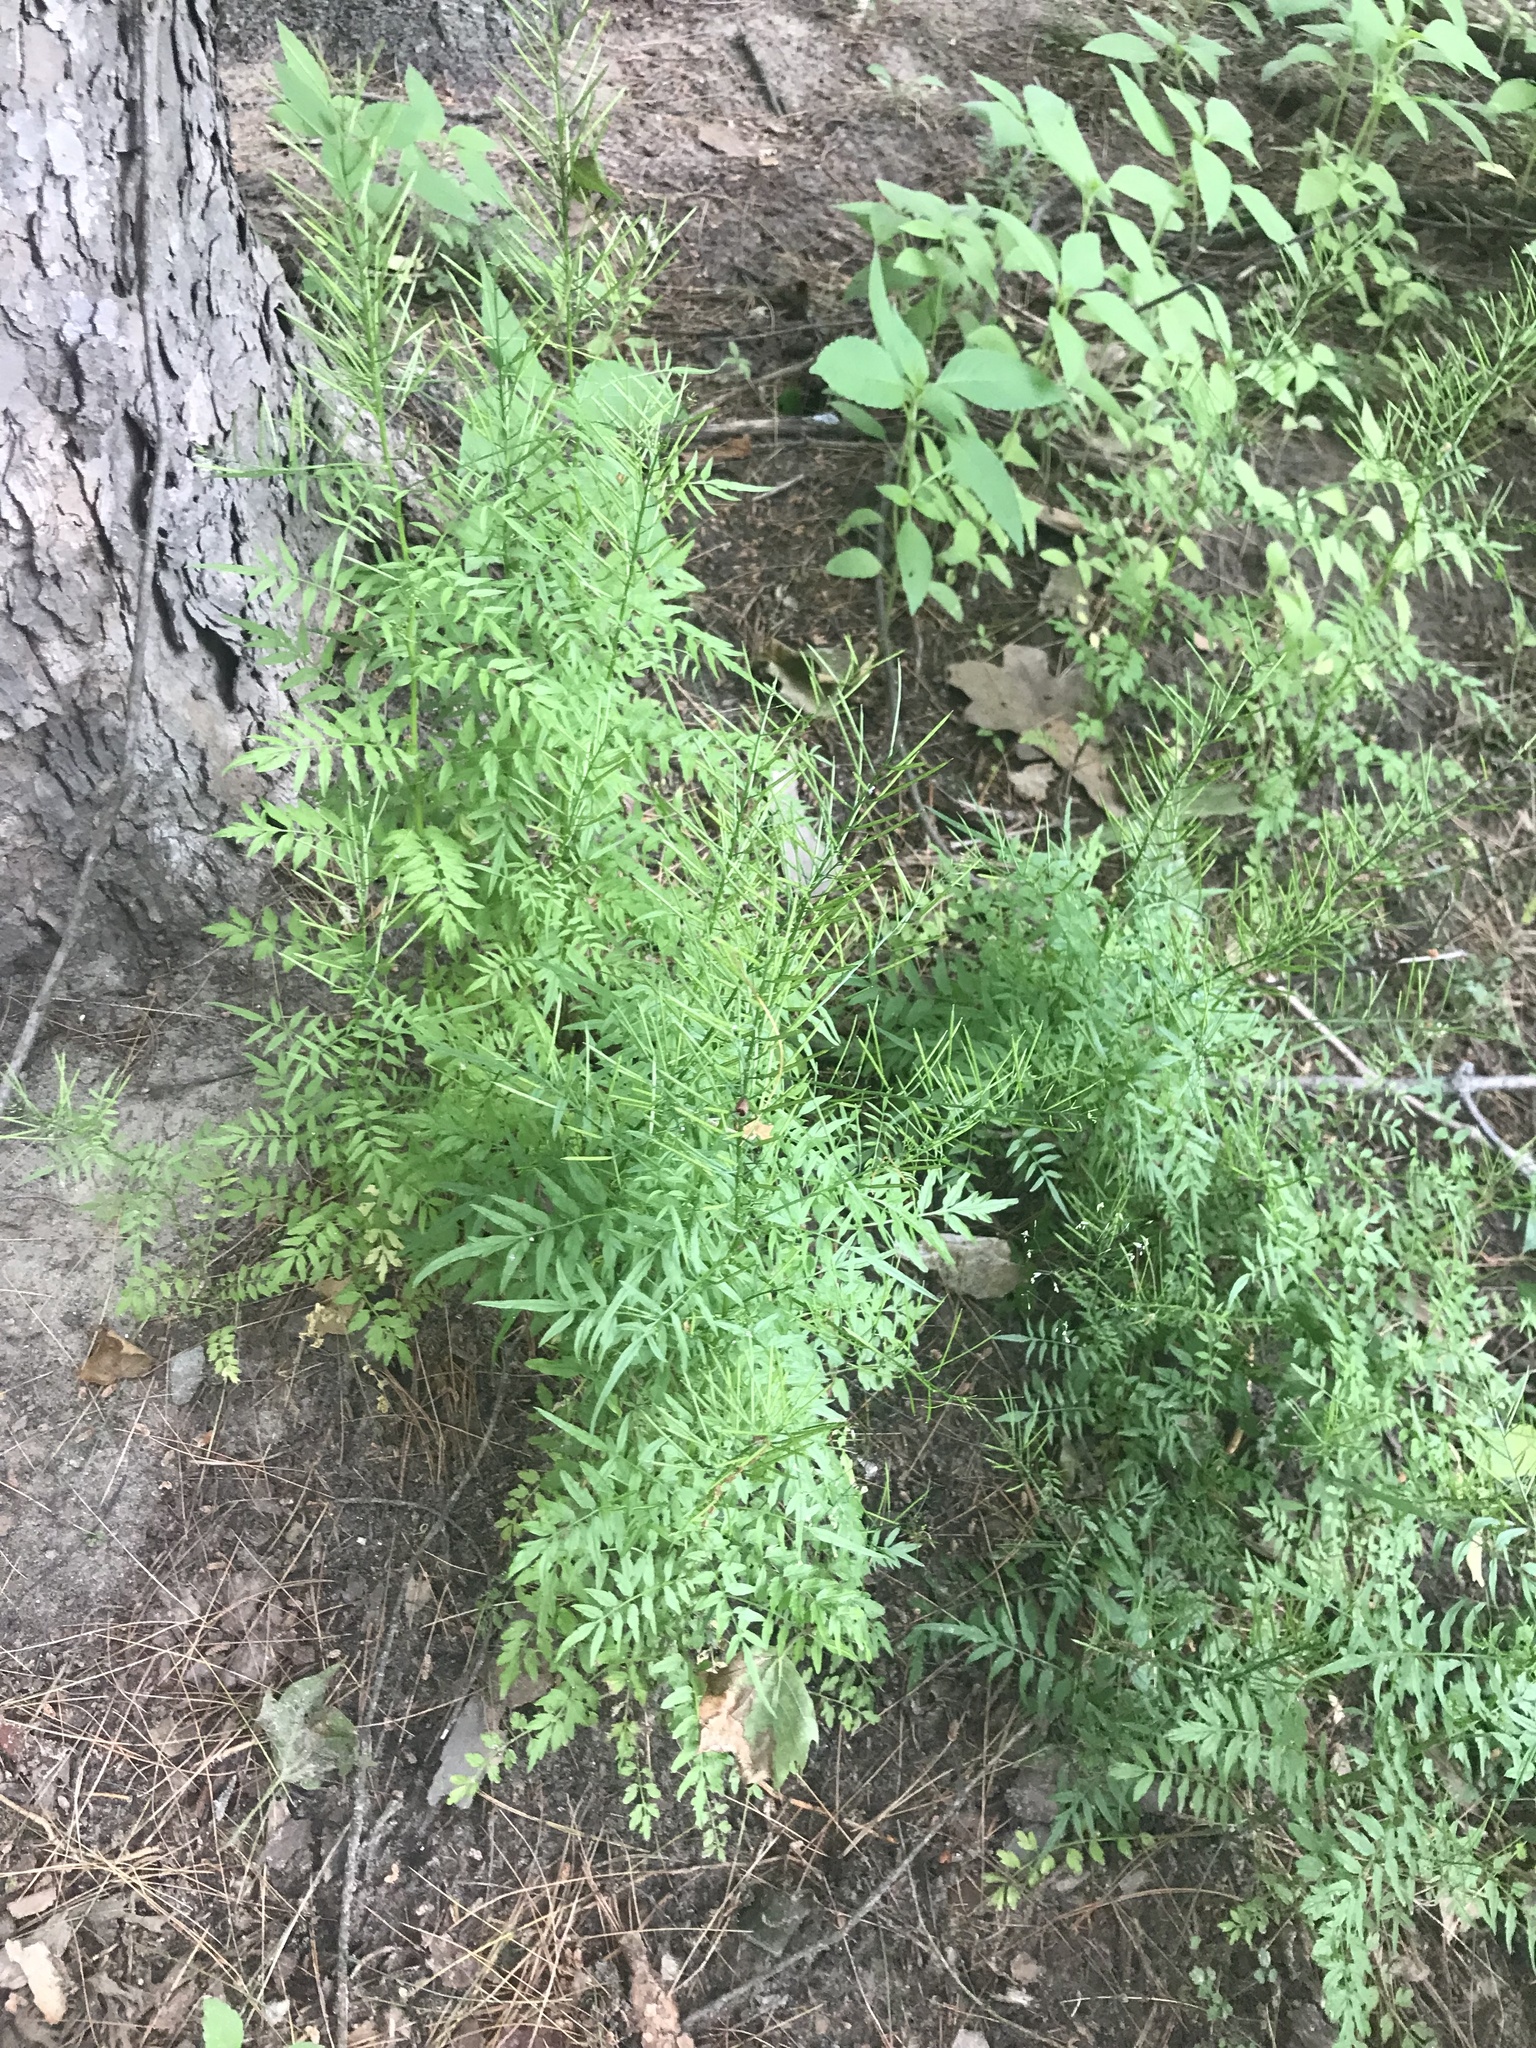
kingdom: Plantae
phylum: Tracheophyta
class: Magnoliopsida
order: Brassicales
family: Brassicaceae
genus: Cardamine
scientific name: Cardamine impatiens
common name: Narrow-leaved bitter-cress
